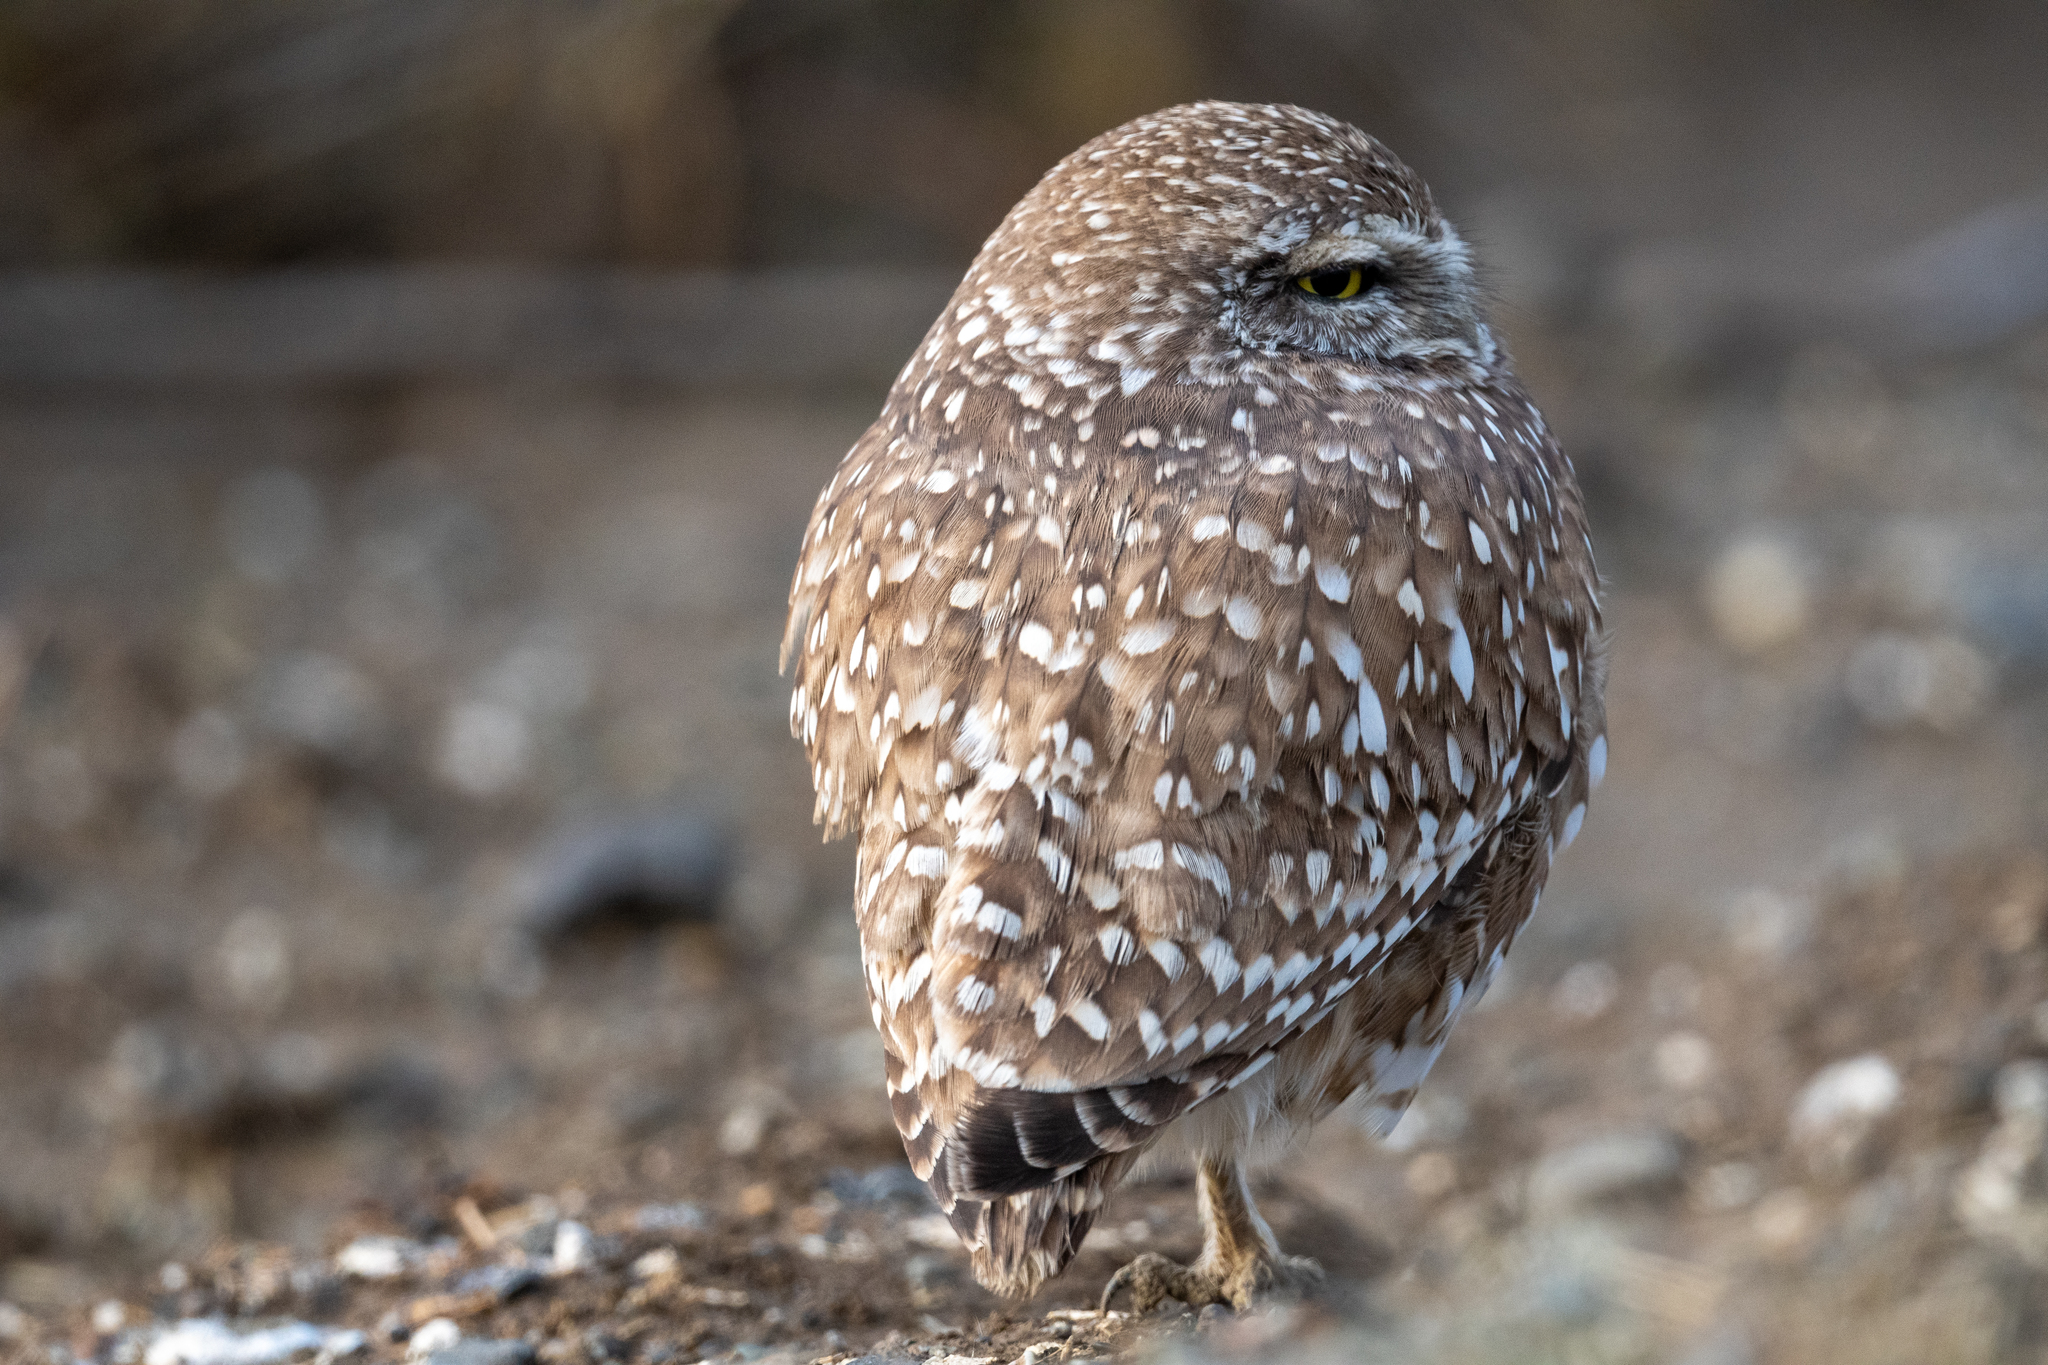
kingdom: Animalia
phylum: Chordata
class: Aves
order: Strigiformes
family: Strigidae
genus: Athene
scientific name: Athene cunicularia
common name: Burrowing owl
